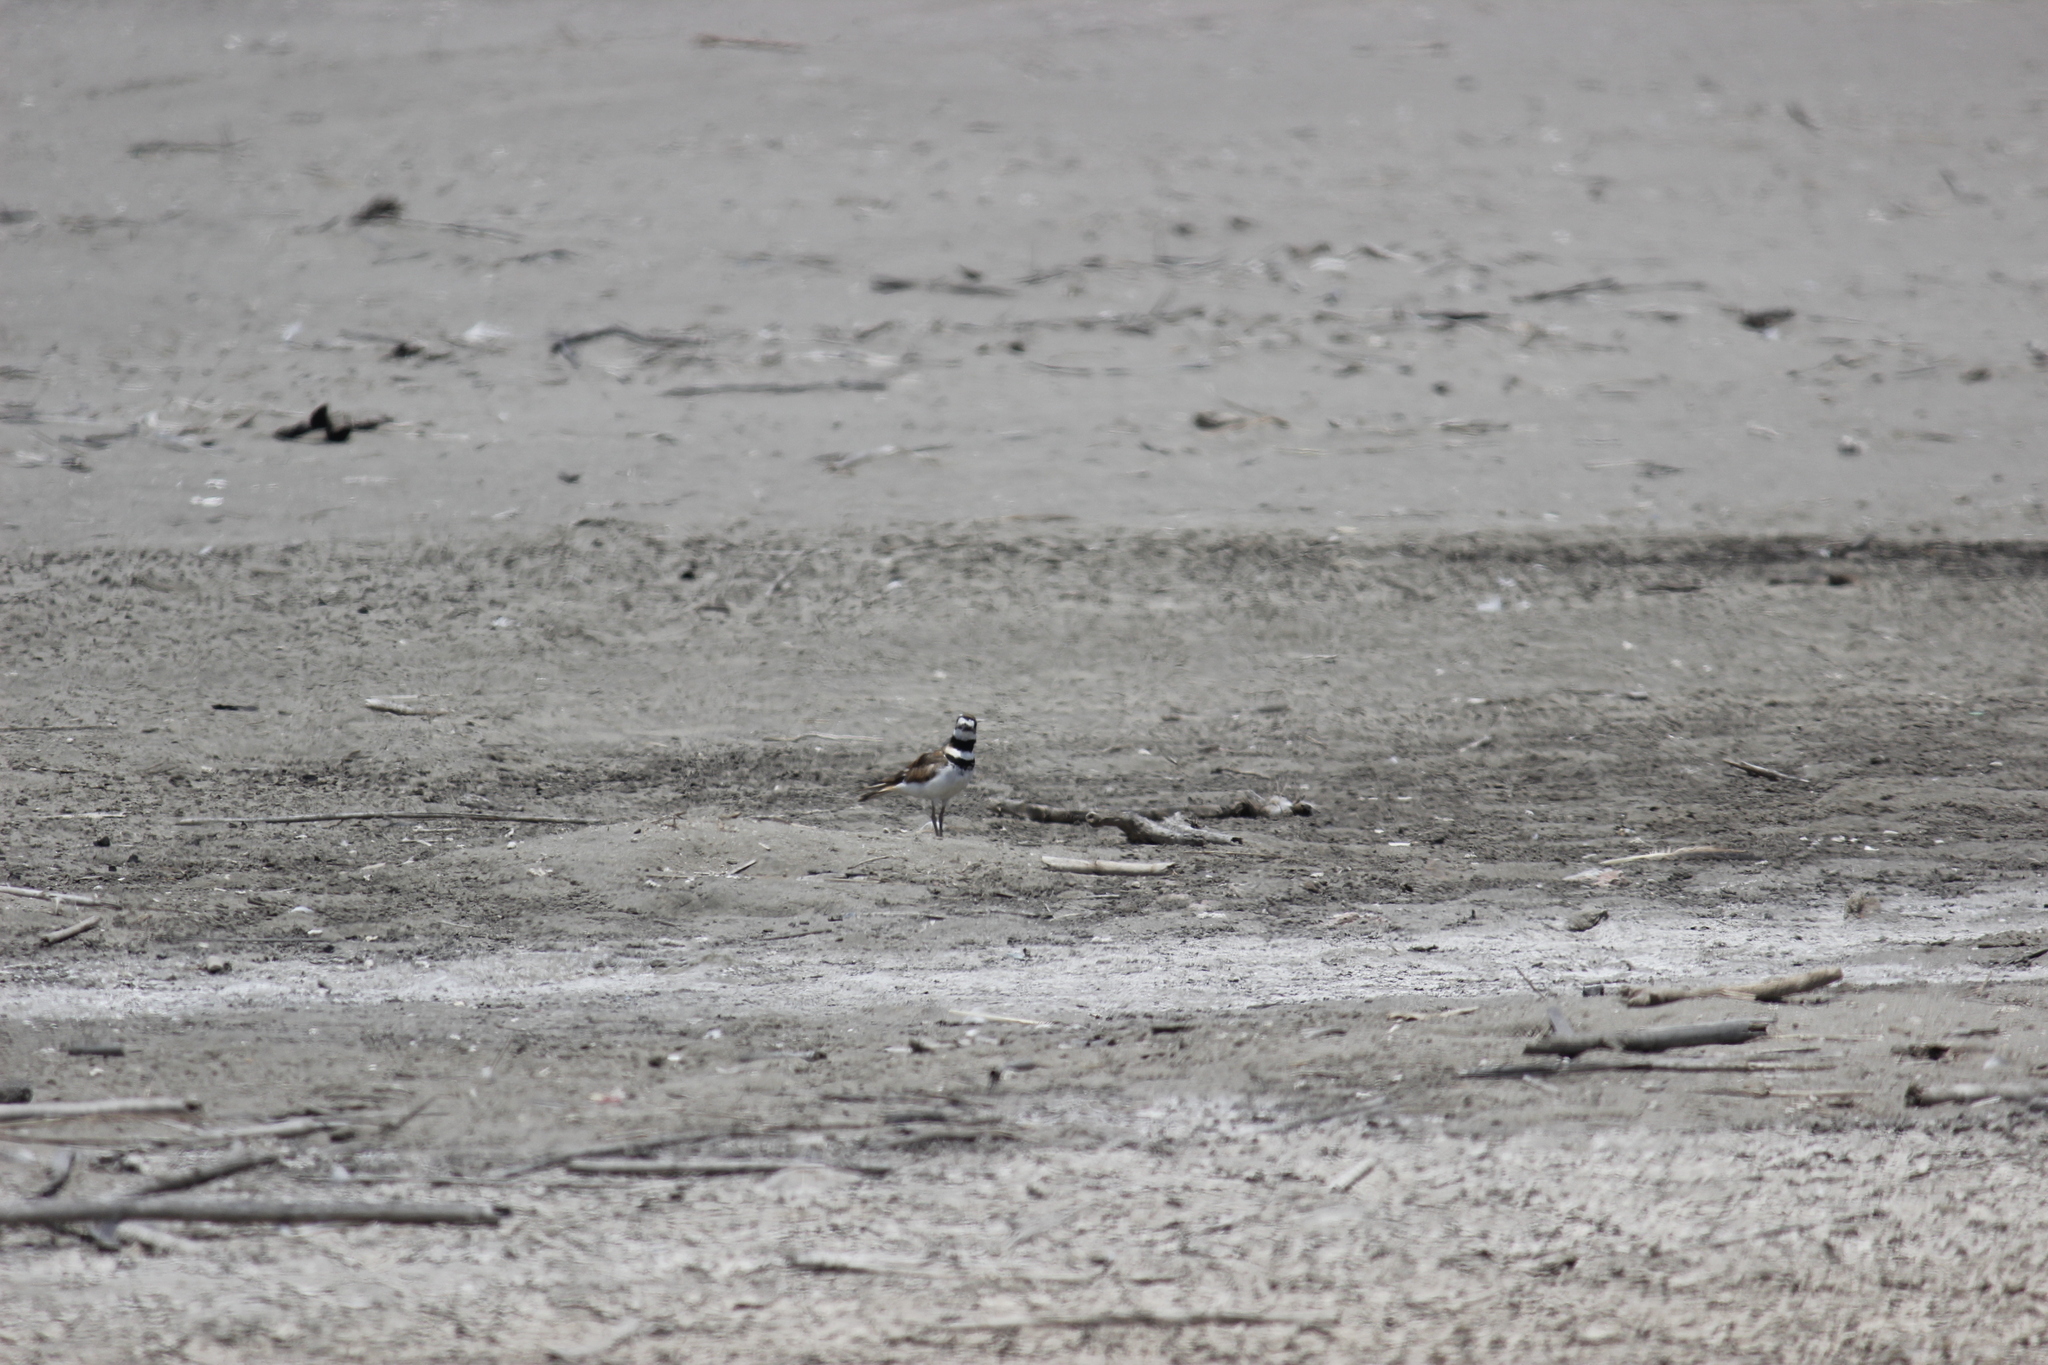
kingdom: Animalia
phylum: Chordata
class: Aves
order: Charadriiformes
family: Charadriidae
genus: Charadrius
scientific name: Charadrius vociferus
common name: Killdeer
